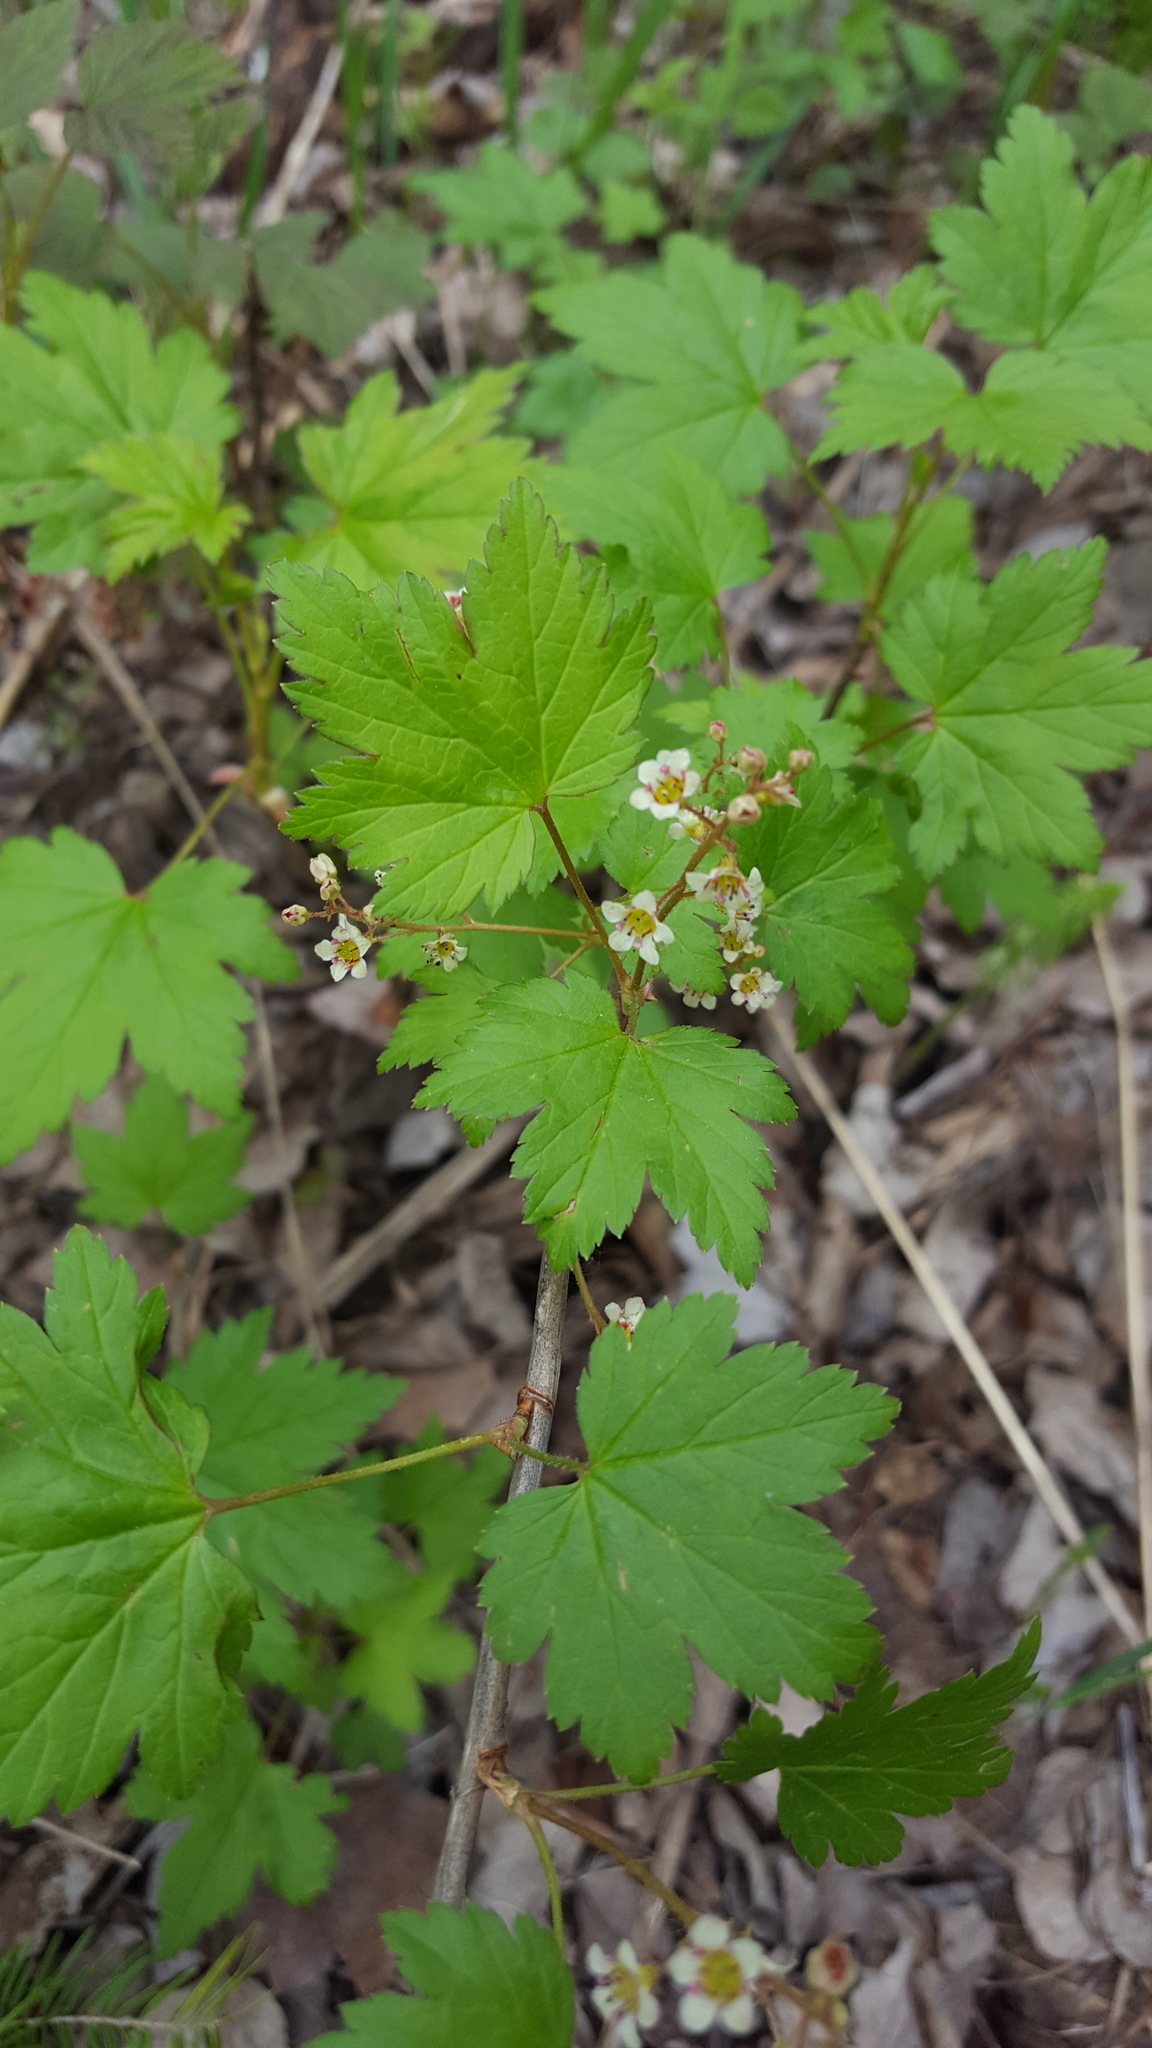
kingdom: Plantae
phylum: Tracheophyta
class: Magnoliopsida
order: Saxifragales
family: Grossulariaceae
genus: Ribes
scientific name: Ribes glandulosum
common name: Skunk currant
